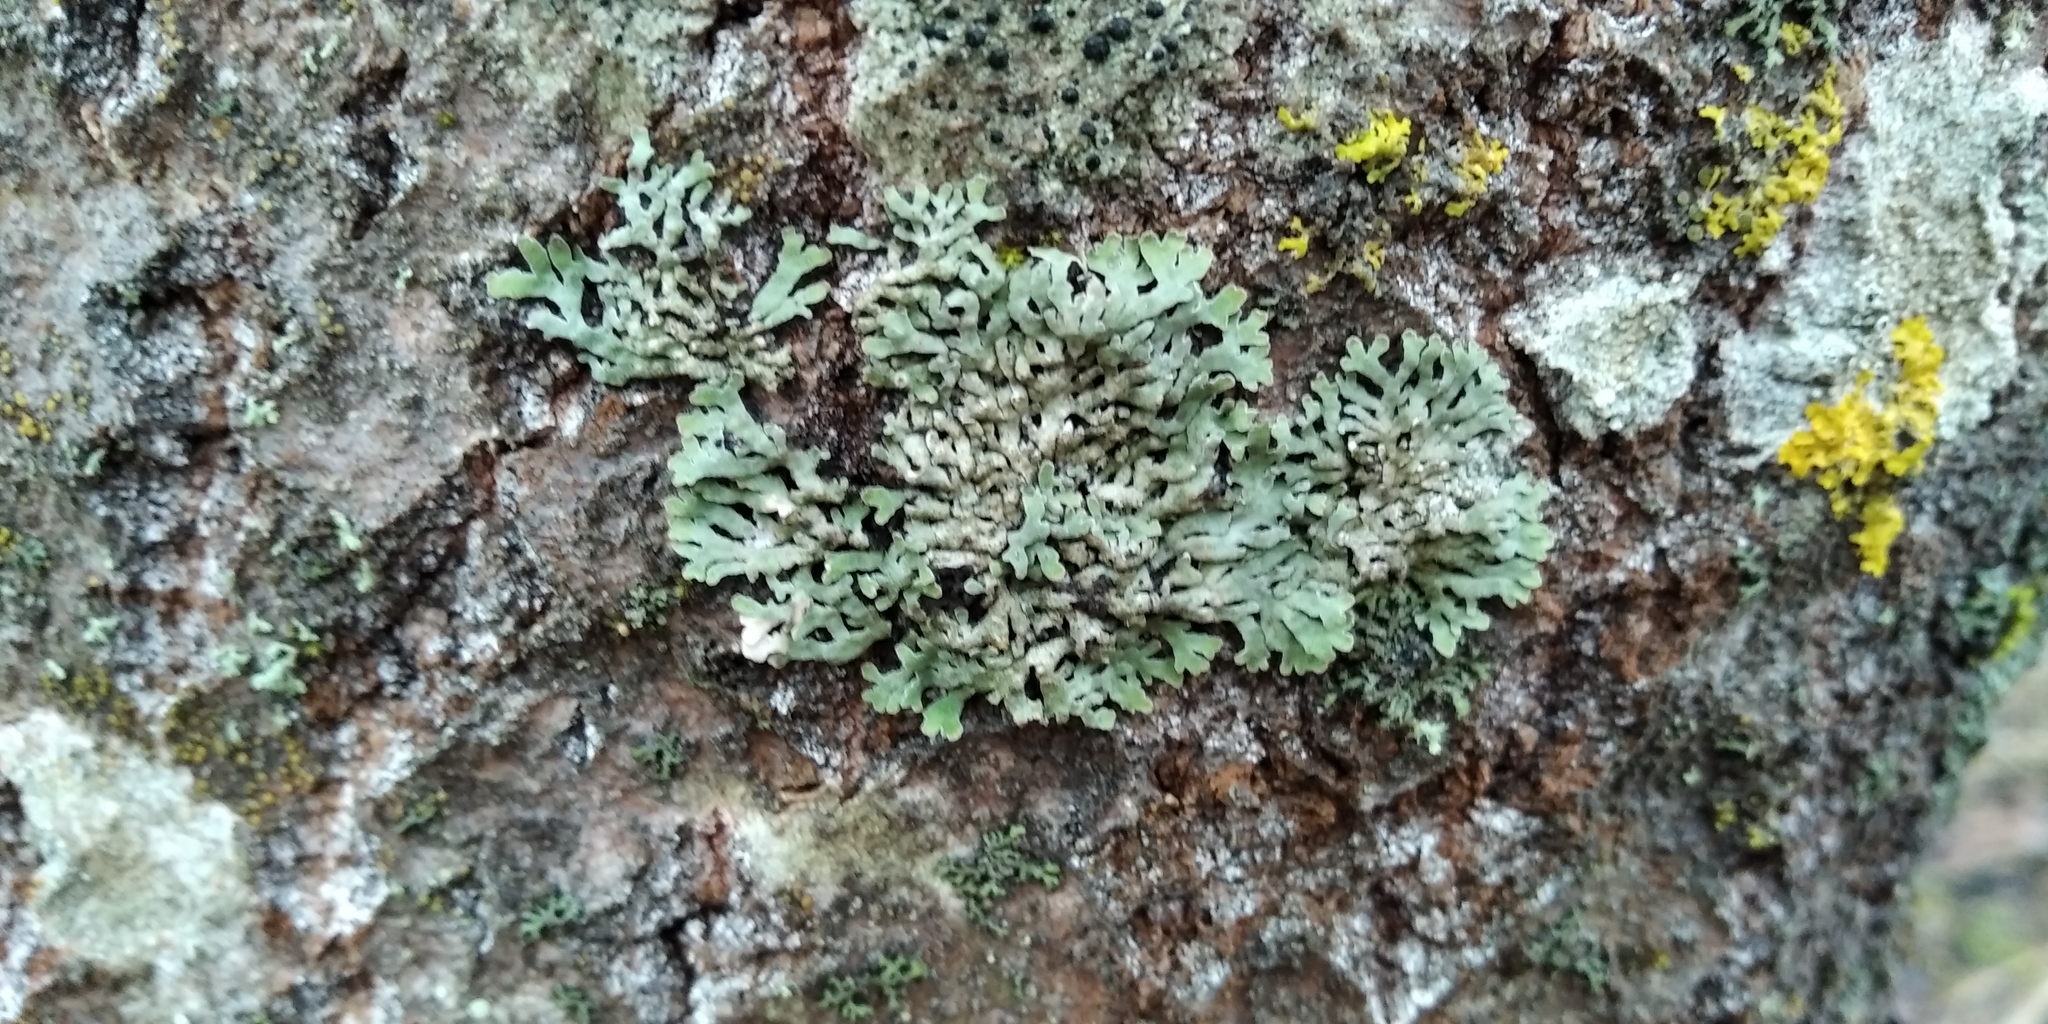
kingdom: Fungi
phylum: Ascomycota
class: Lecanoromycetes
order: Caliciales
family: Physciaceae
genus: Physconia
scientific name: Physconia distorta
